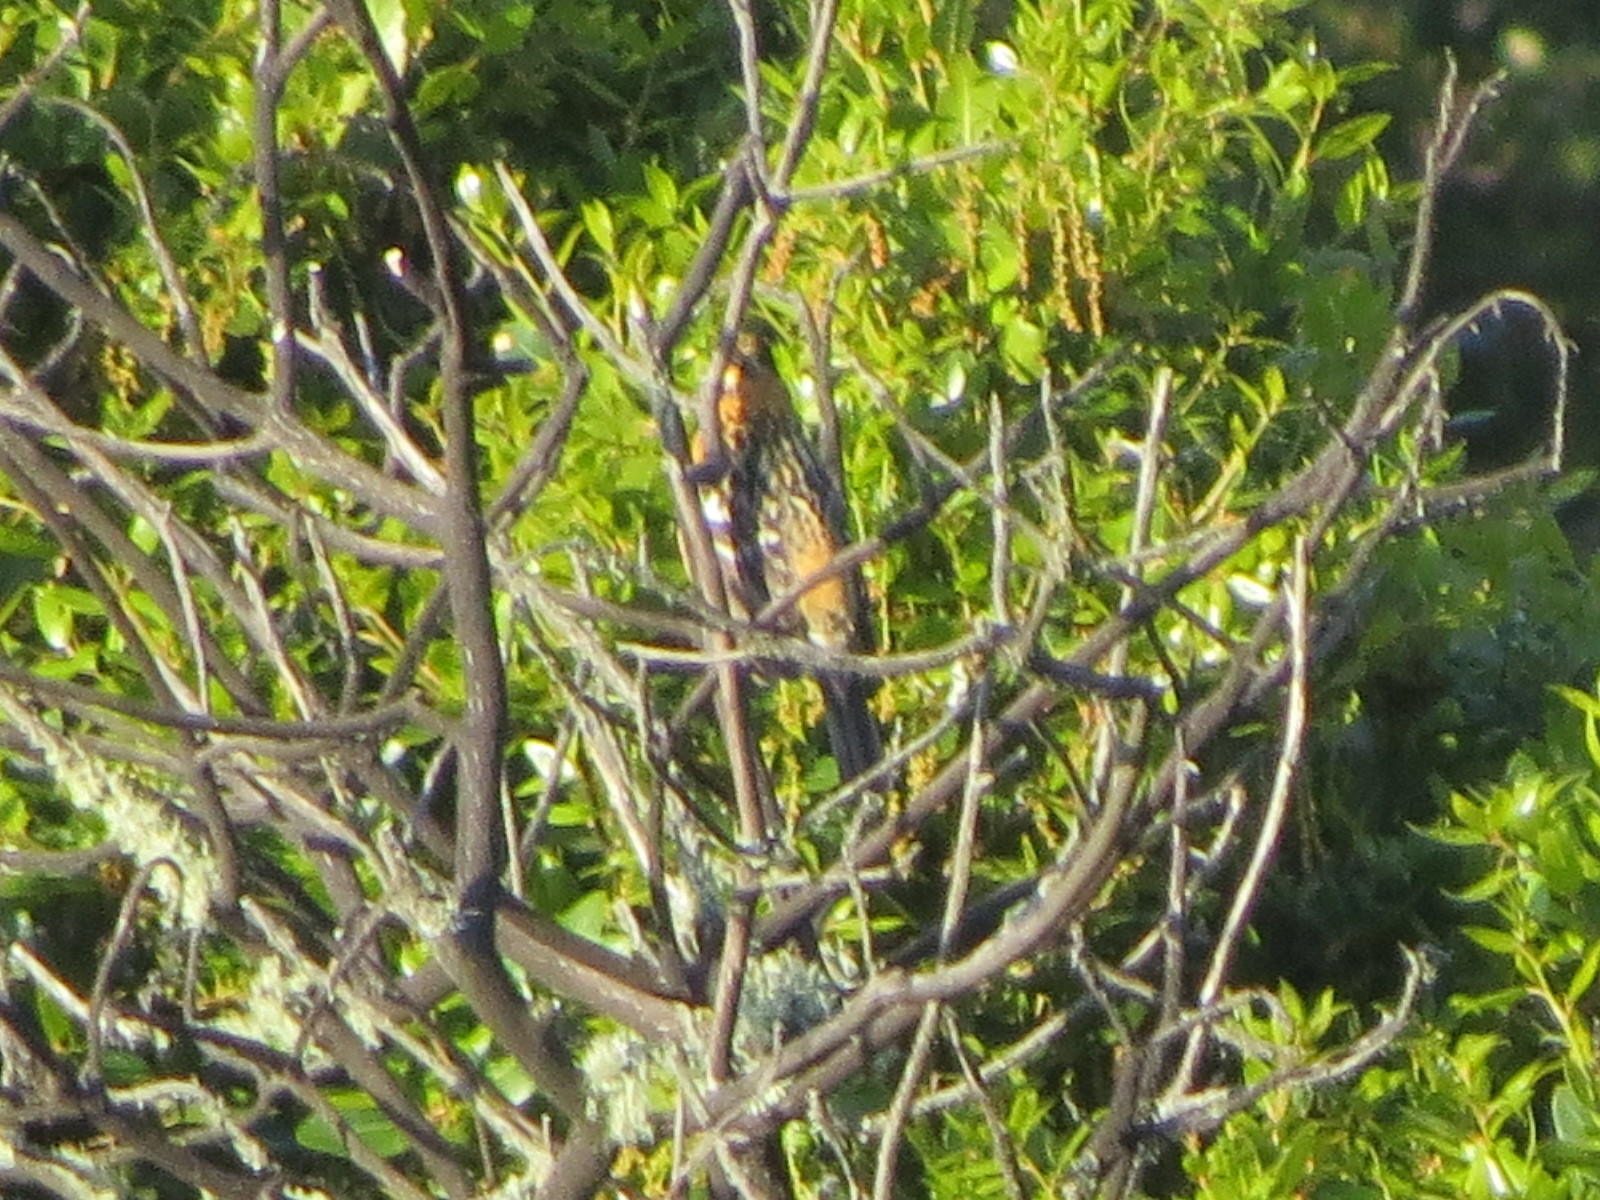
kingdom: Animalia
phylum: Chordata
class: Aves
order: Passeriformes
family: Cardinalidae
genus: Pheucticus
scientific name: Pheucticus melanocephalus
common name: Black-headed grosbeak
